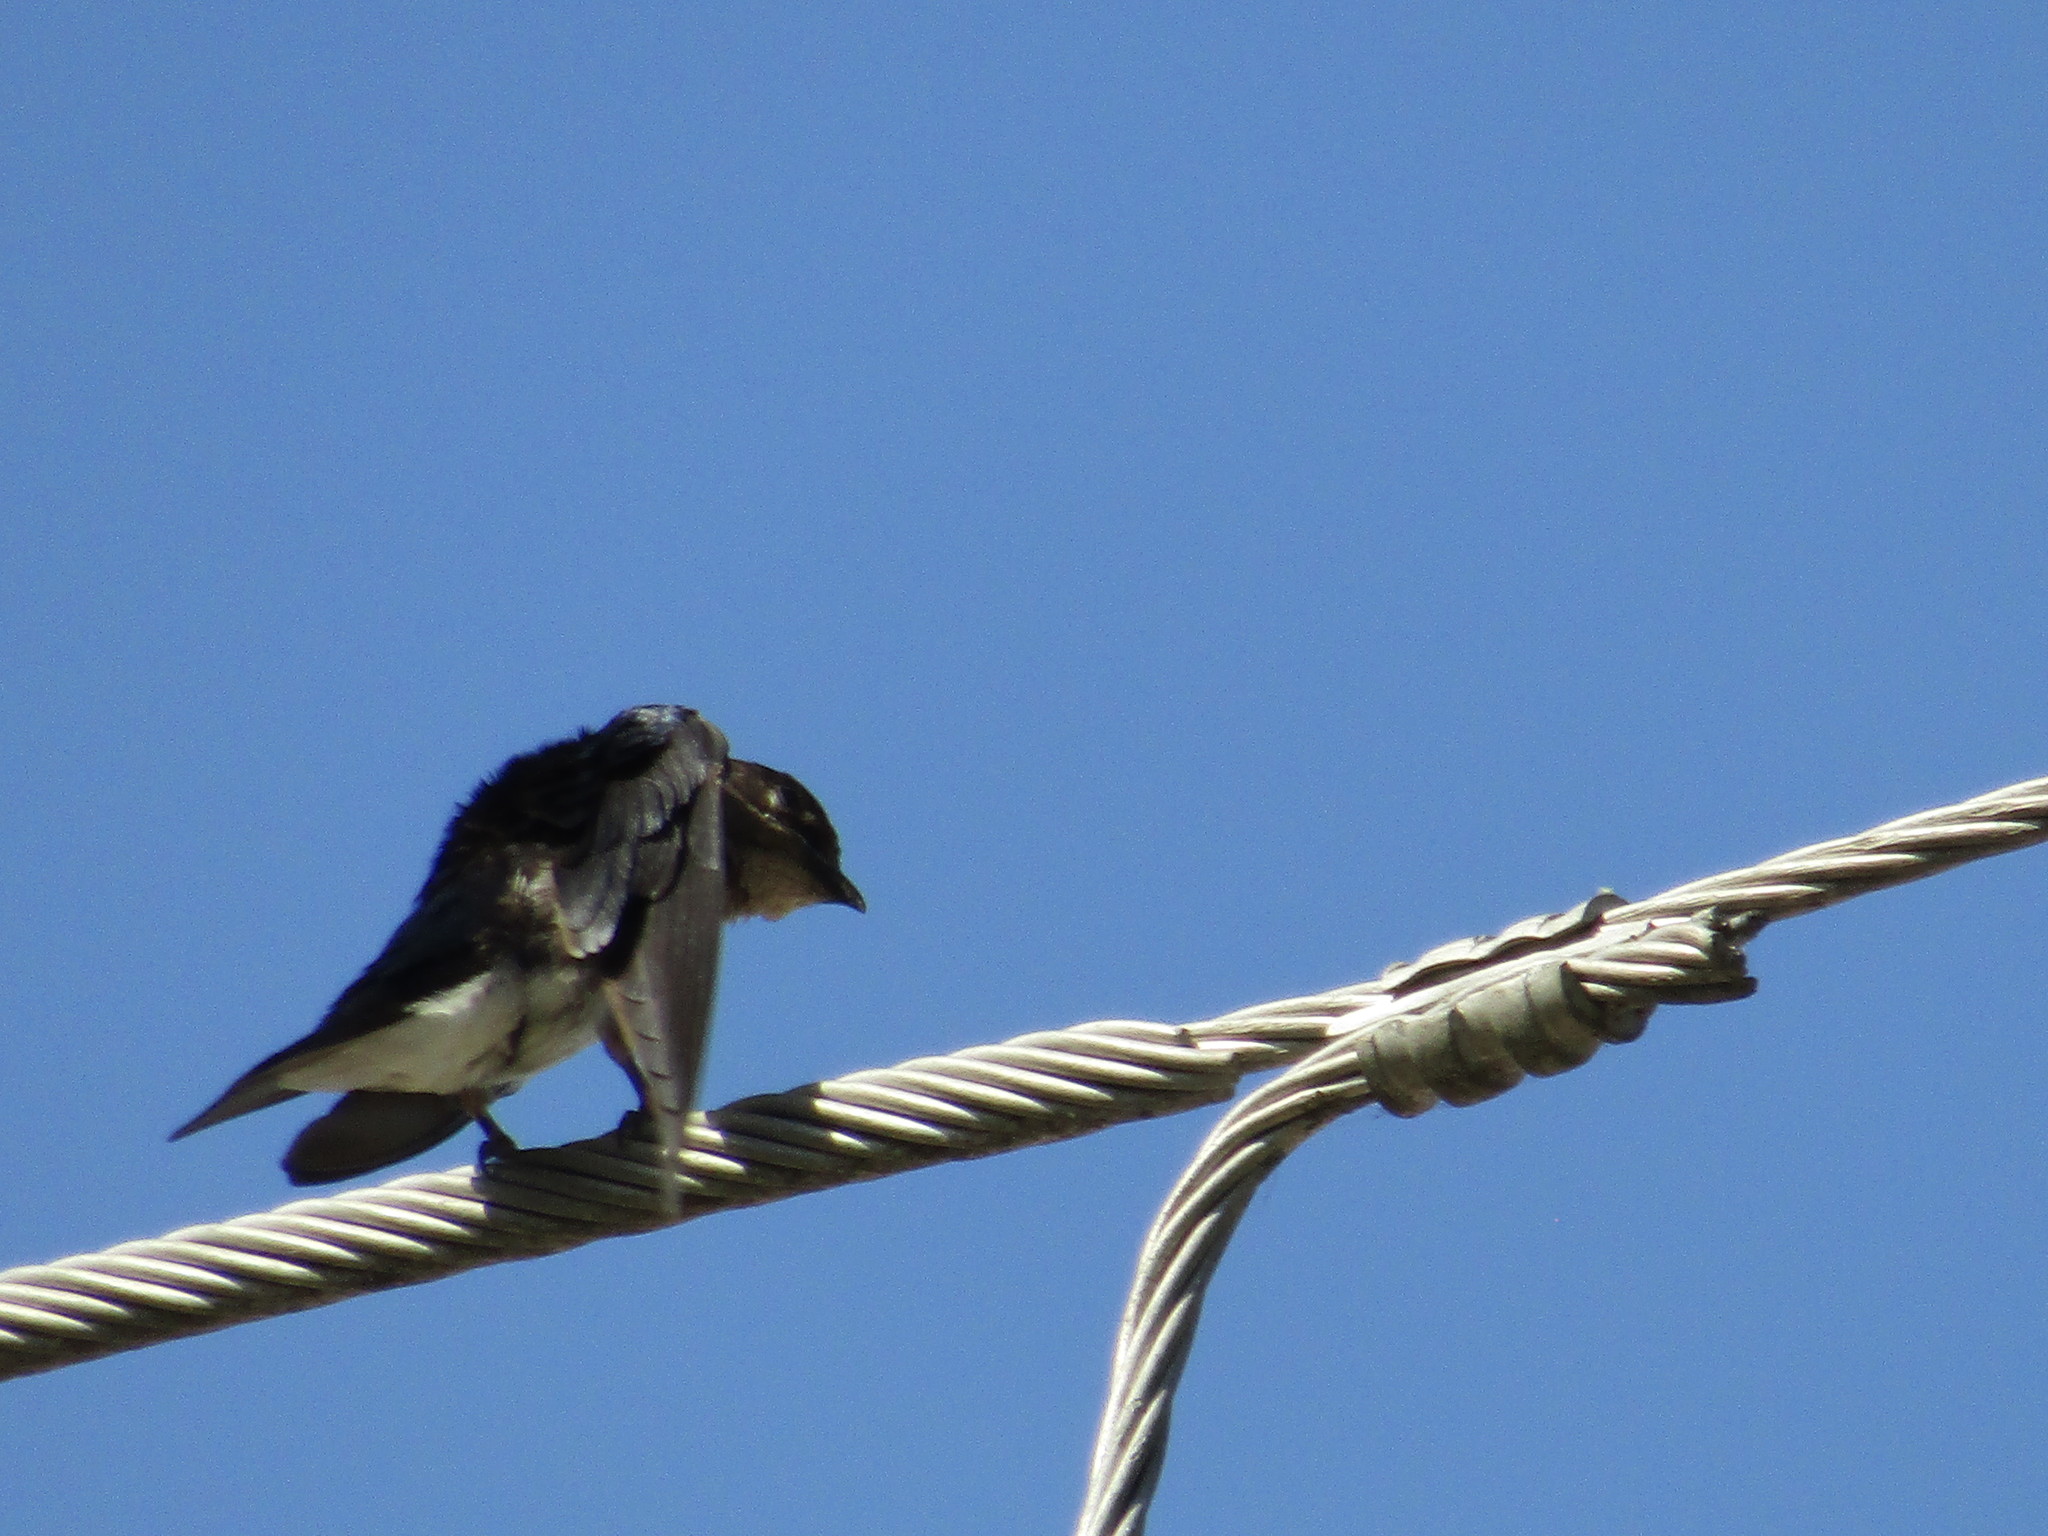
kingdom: Animalia
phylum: Chordata
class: Aves
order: Passeriformes
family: Hirundinidae
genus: Progne
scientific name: Progne chalybea
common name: Grey-breasted martin
